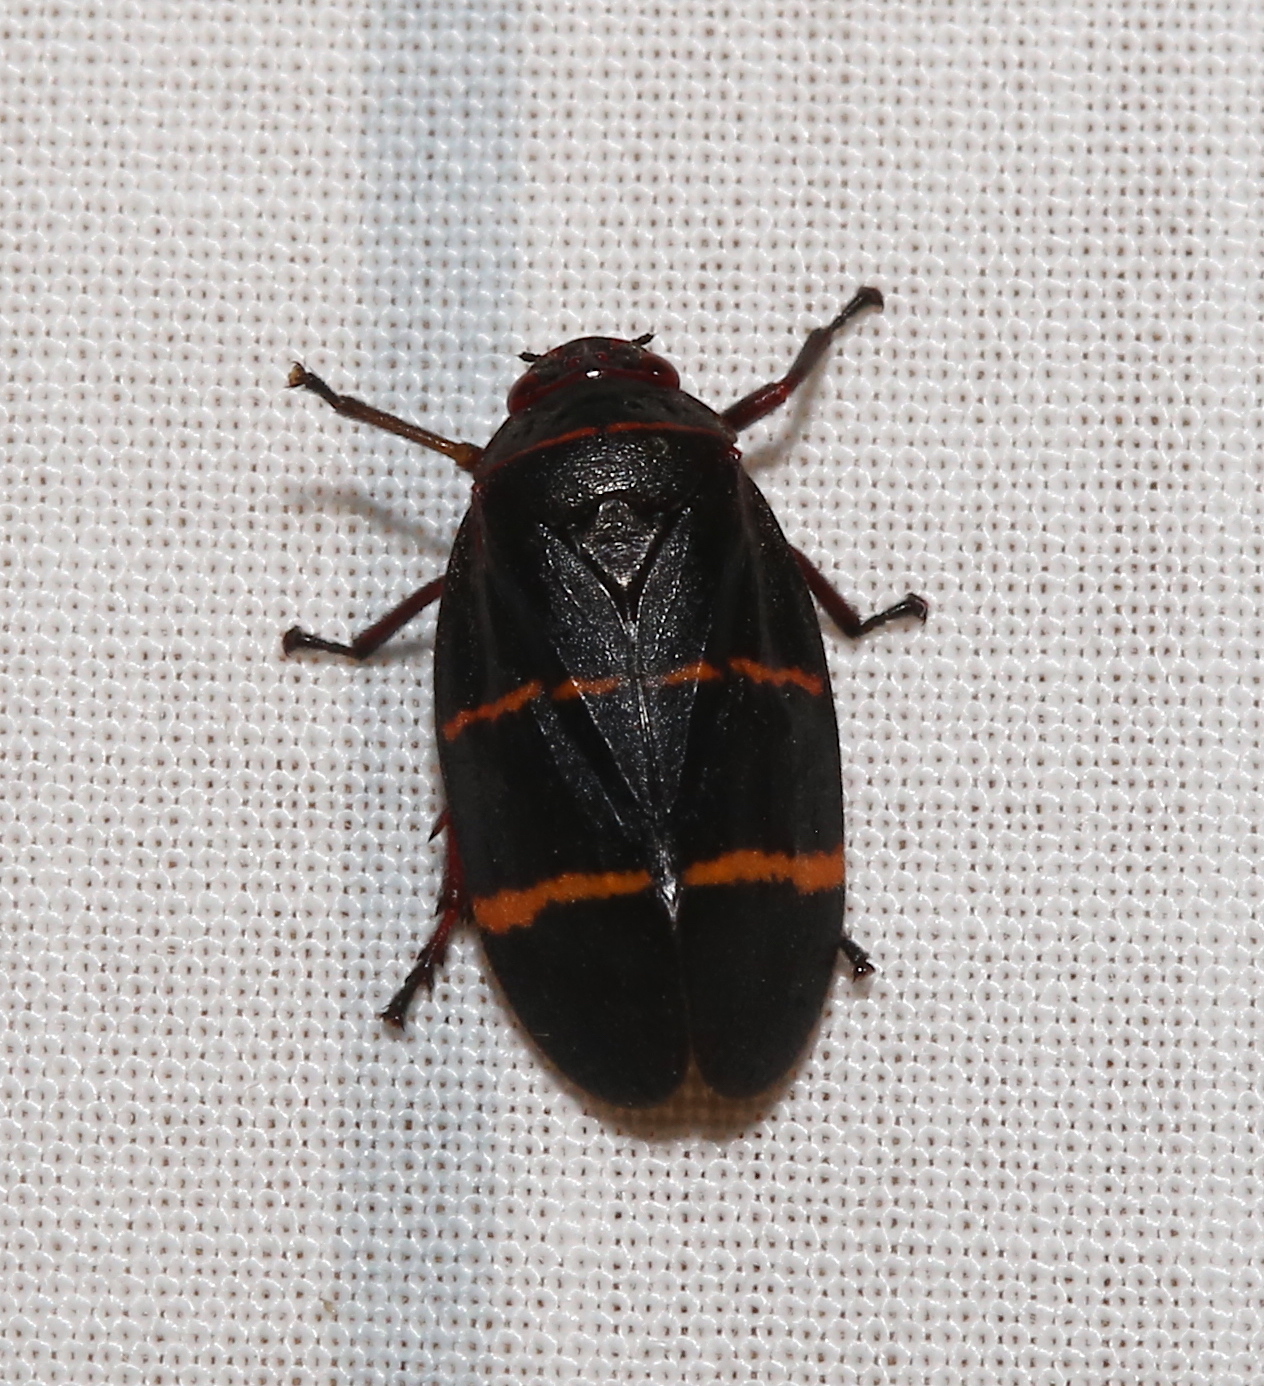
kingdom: Animalia
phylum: Arthropoda
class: Insecta
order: Hemiptera
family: Cercopidae
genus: Prosapia
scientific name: Prosapia bicincta
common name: Twolined spittlebug
